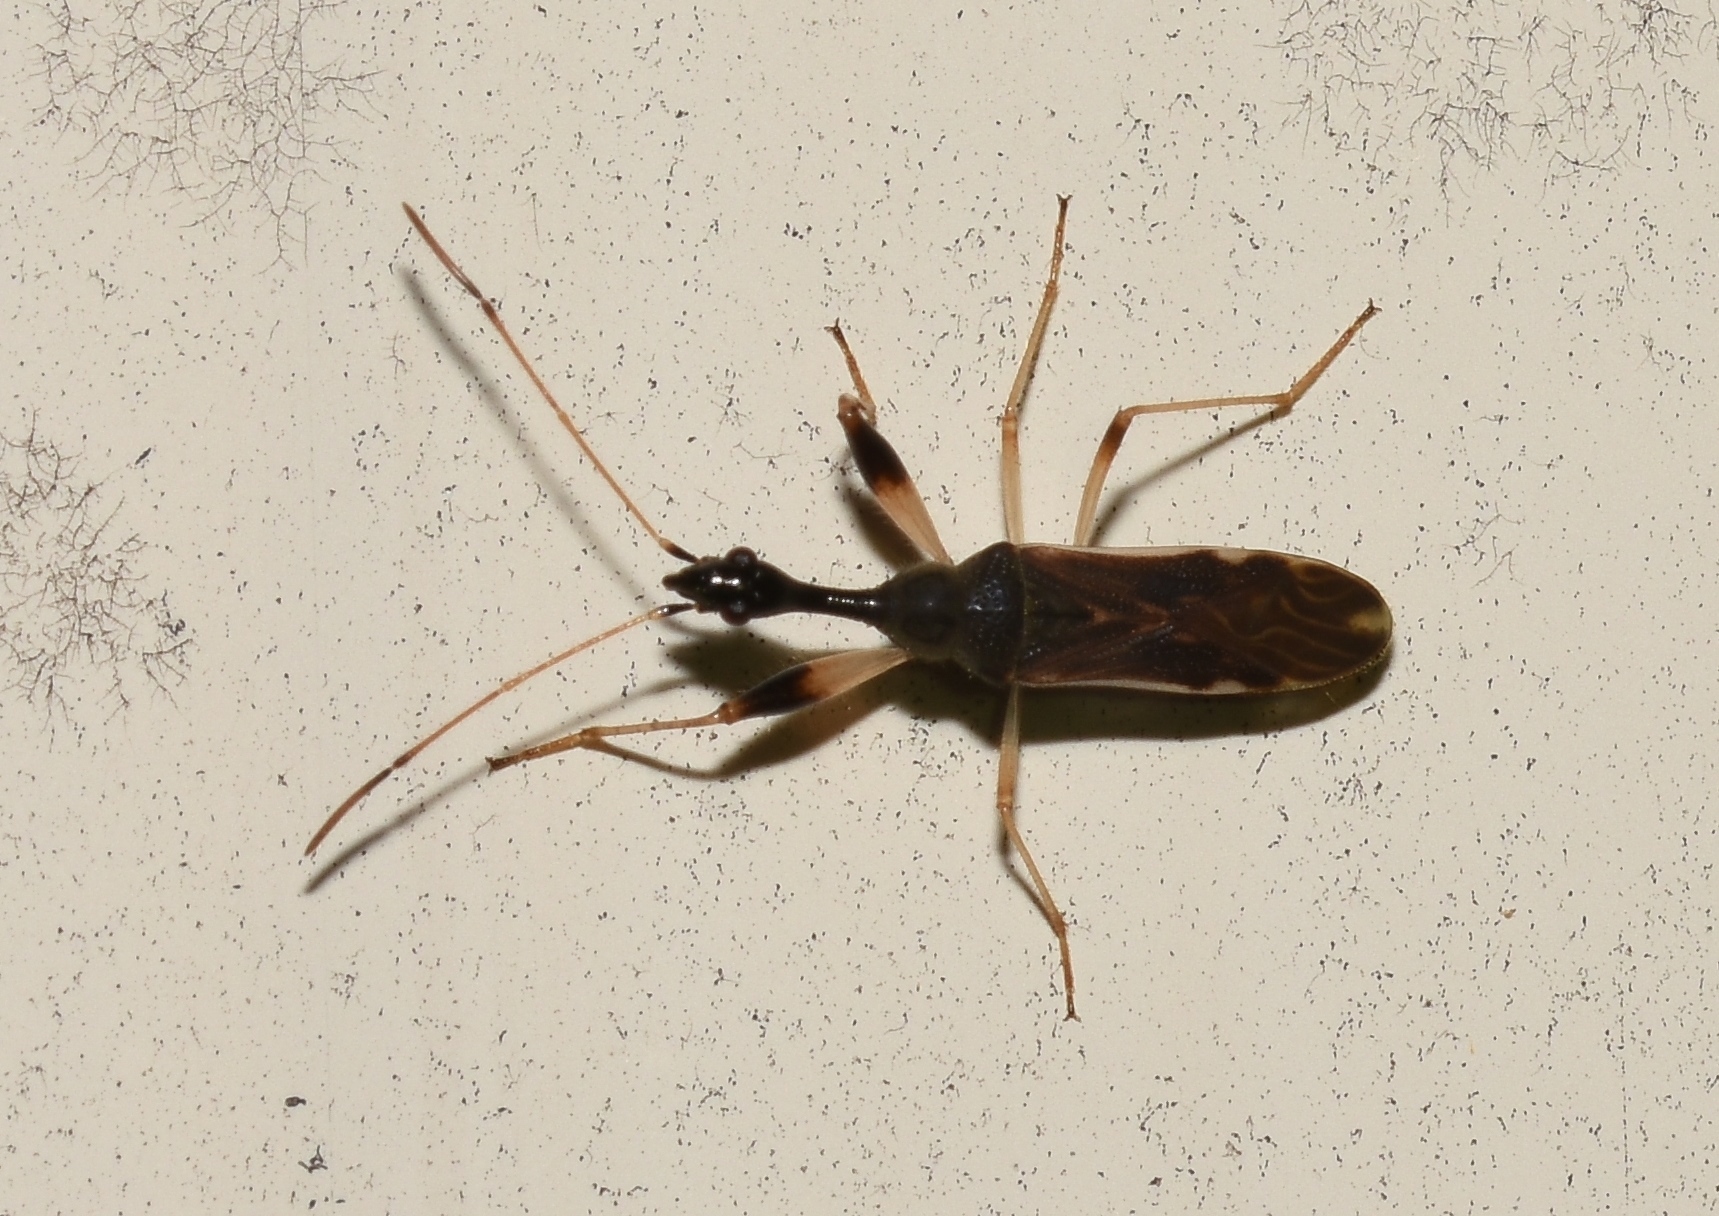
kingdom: Animalia
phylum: Arthropoda
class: Insecta
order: Hemiptera
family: Rhyparochromidae
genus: Myodocha
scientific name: Myodocha serripes
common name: Long-necked seed bug
